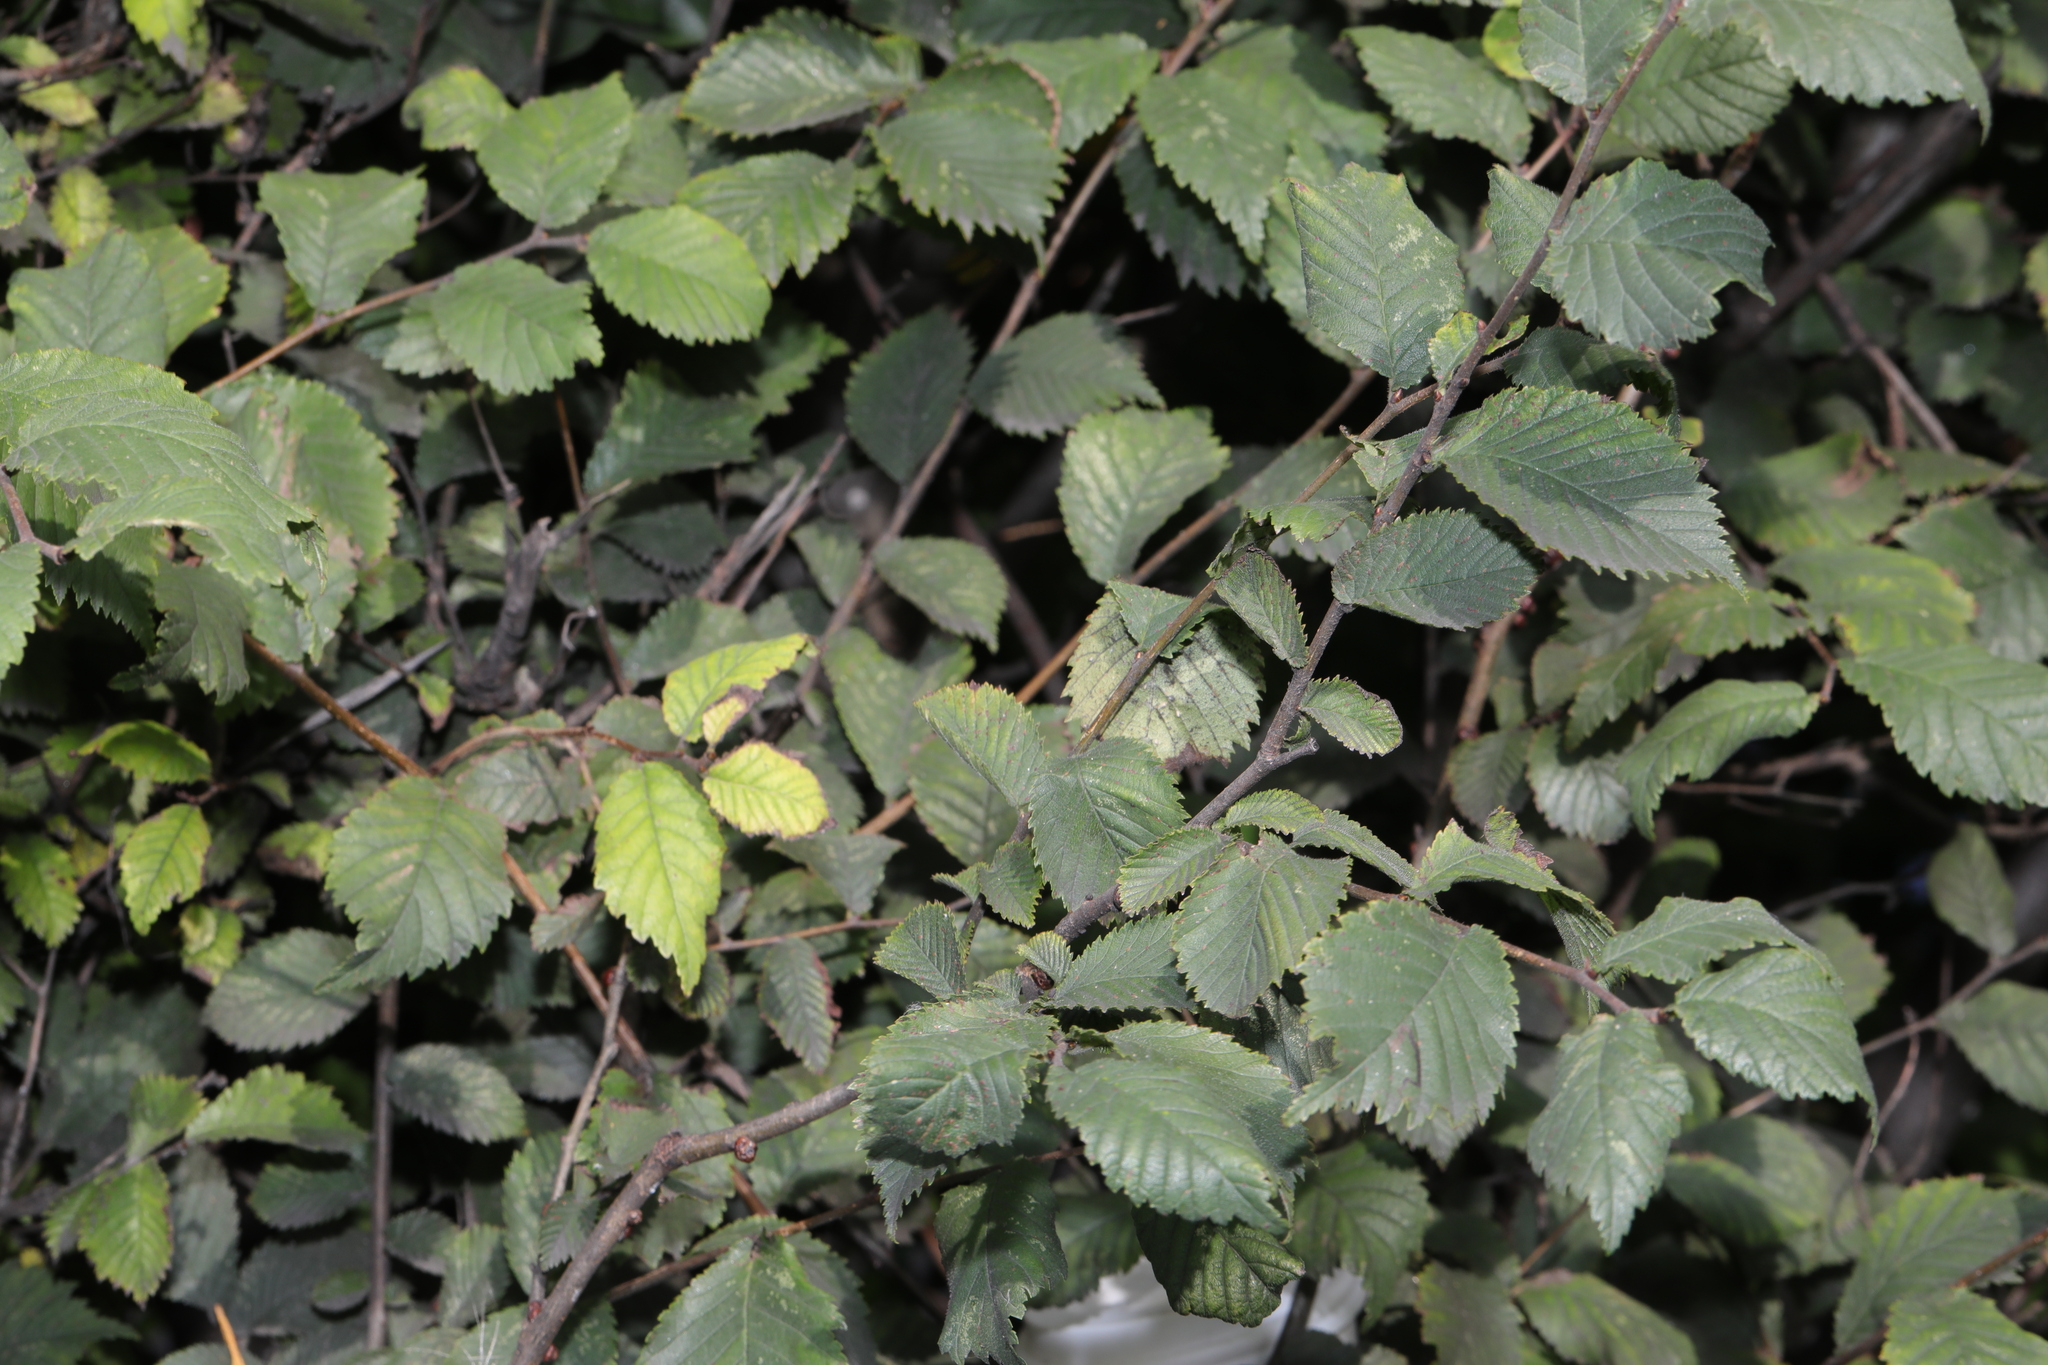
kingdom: Plantae
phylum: Tracheophyta
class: Magnoliopsida
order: Rosales
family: Ulmaceae
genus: Ulmus
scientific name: Ulmus minor
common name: Small-leaved elm
